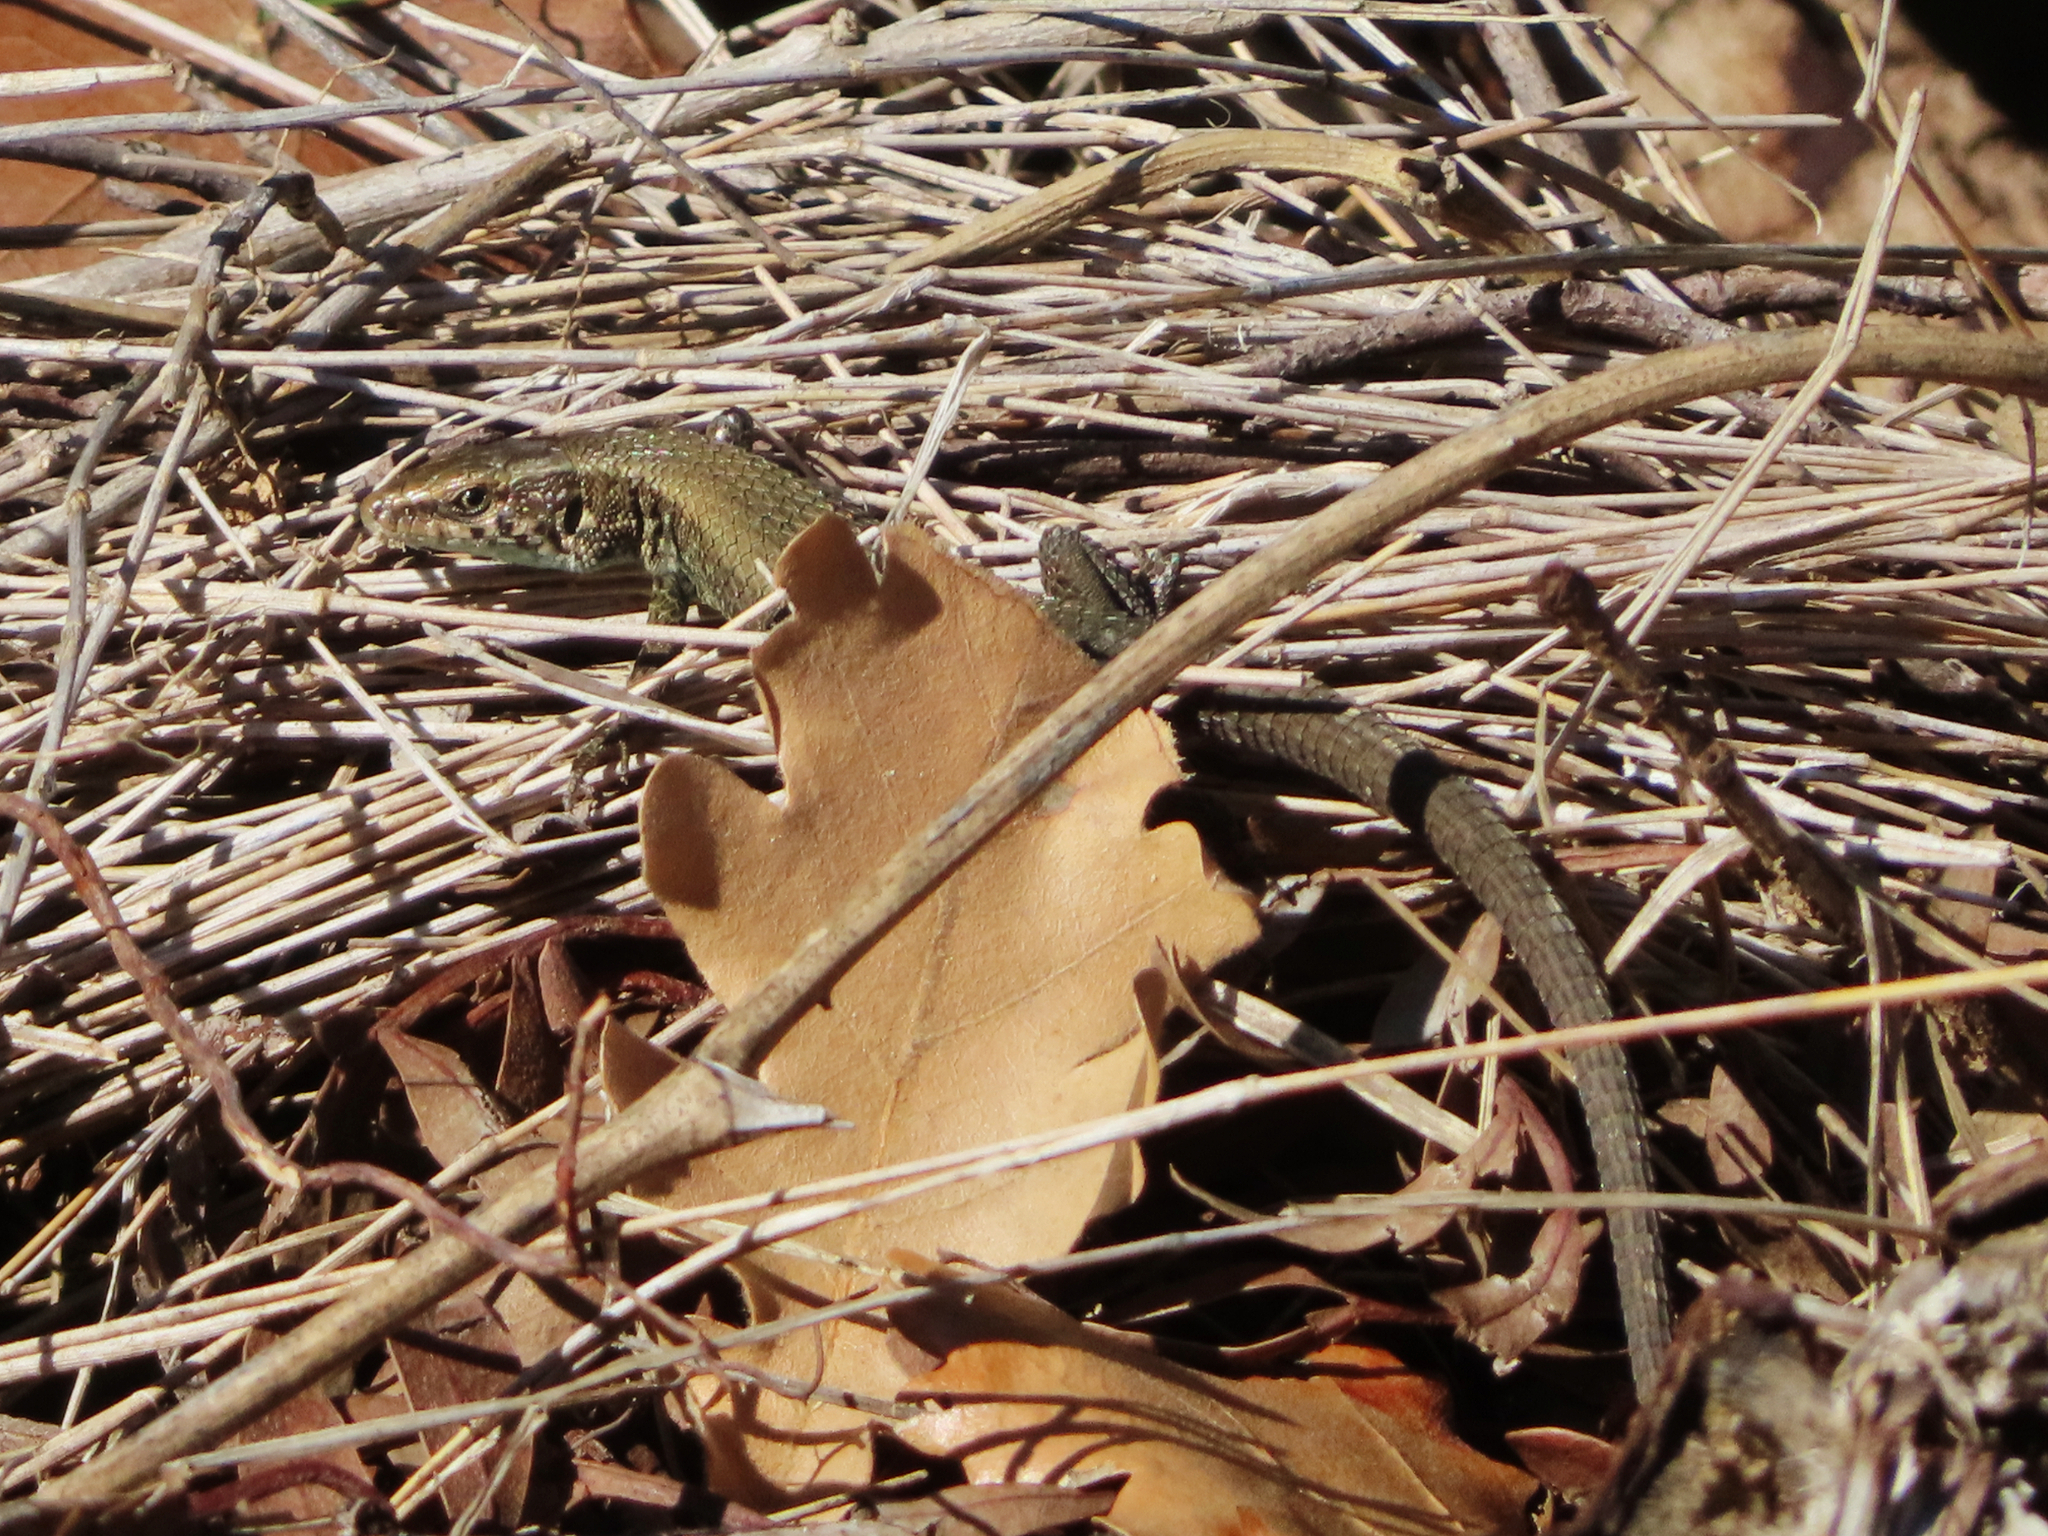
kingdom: Animalia
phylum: Chordata
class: Squamata
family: Lacertidae
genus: Algyroides
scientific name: Algyroides moreoticus
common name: Greek algyroides
